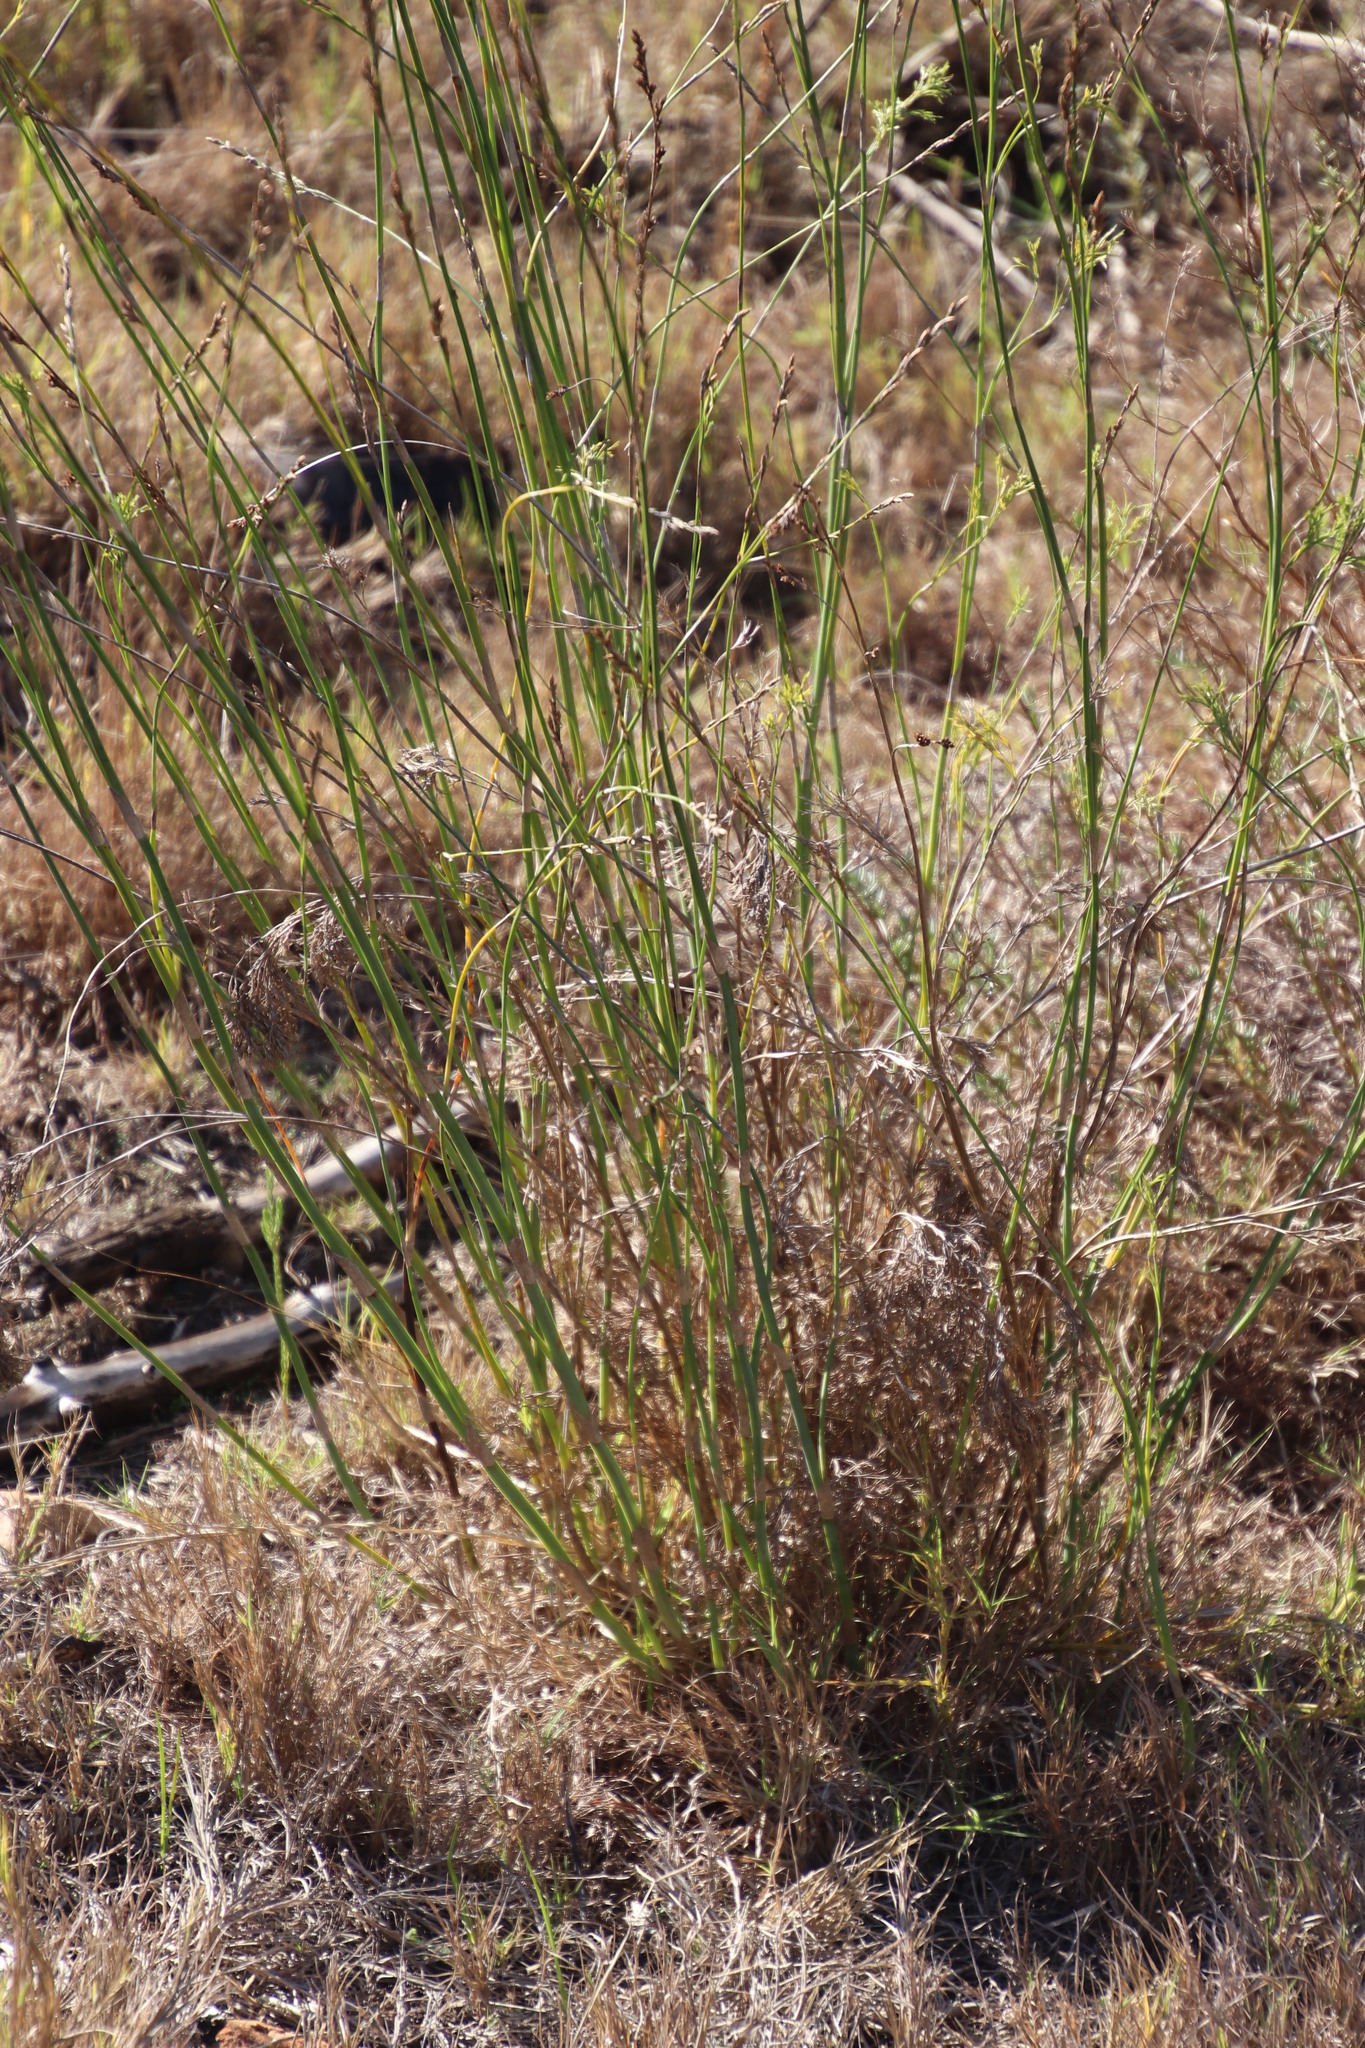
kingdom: Plantae
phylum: Tracheophyta
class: Liliopsida
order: Poales
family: Restionaceae
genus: Restio
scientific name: Restio tetragonus
